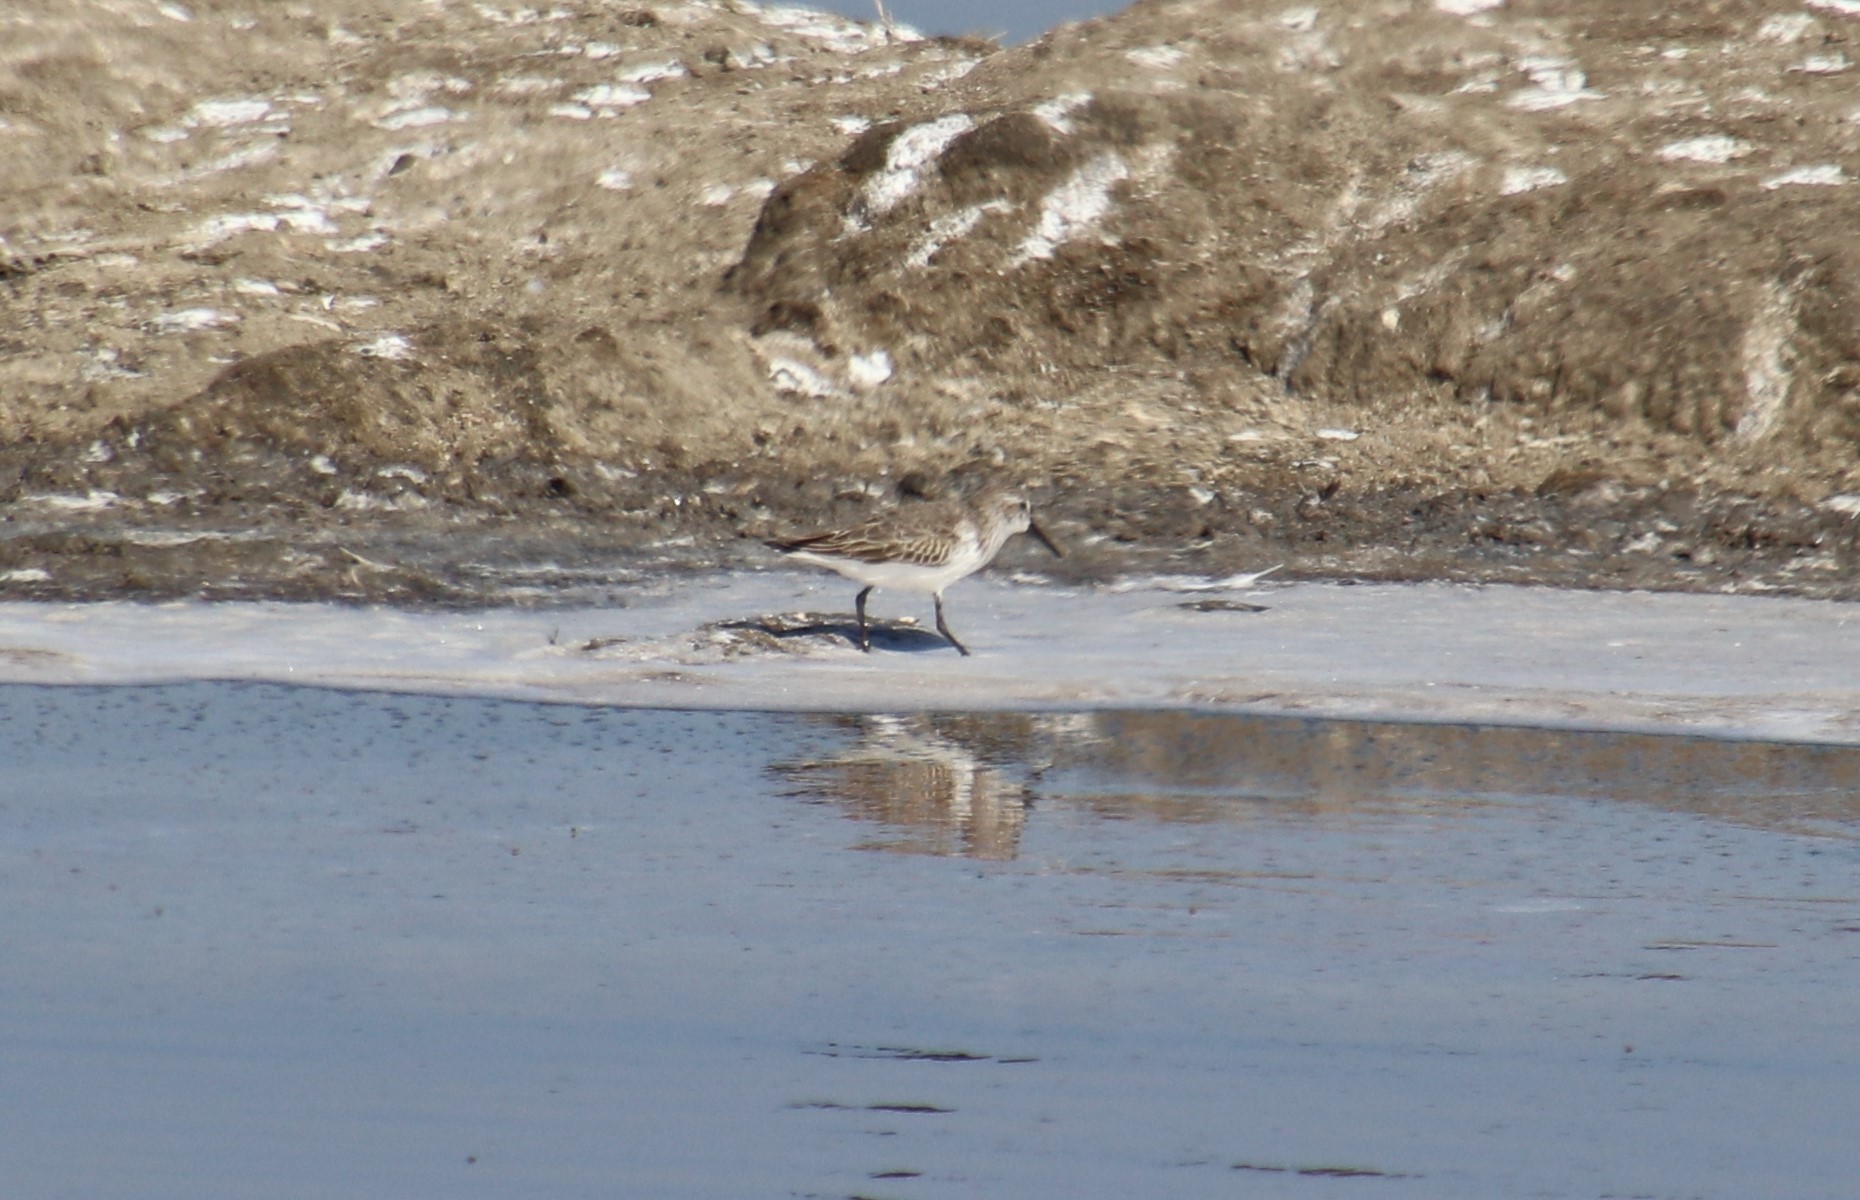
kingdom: Animalia
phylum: Chordata
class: Aves
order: Charadriiformes
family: Scolopacidae
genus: Calidris
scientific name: Calidris mauri
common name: Western sandpiper
